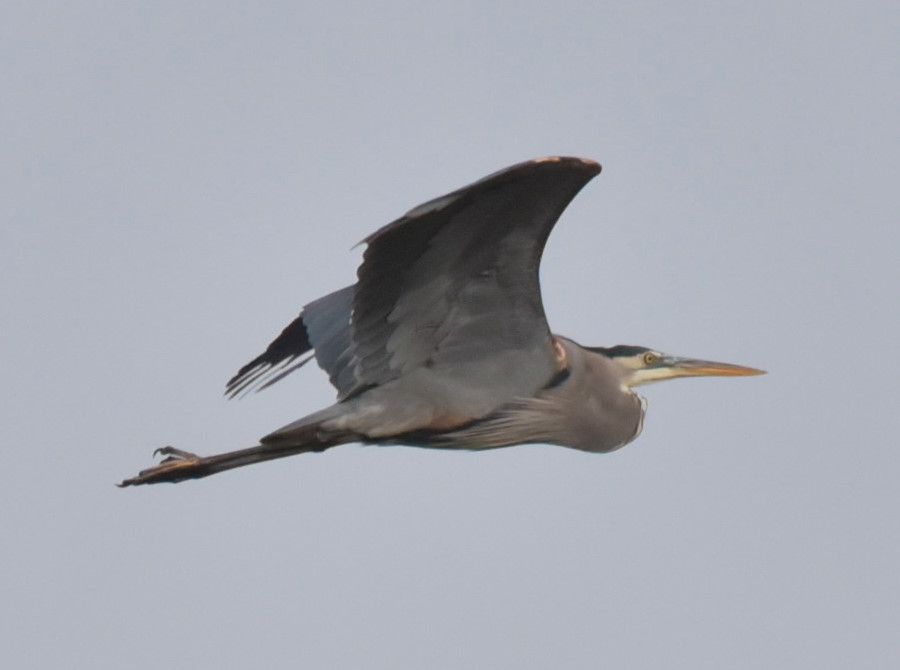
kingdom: Animalia
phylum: Chordata
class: Aves
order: Pelecaniformes
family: Ardeidae
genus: Ardea
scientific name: Ardea herodias
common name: Great blue heron
